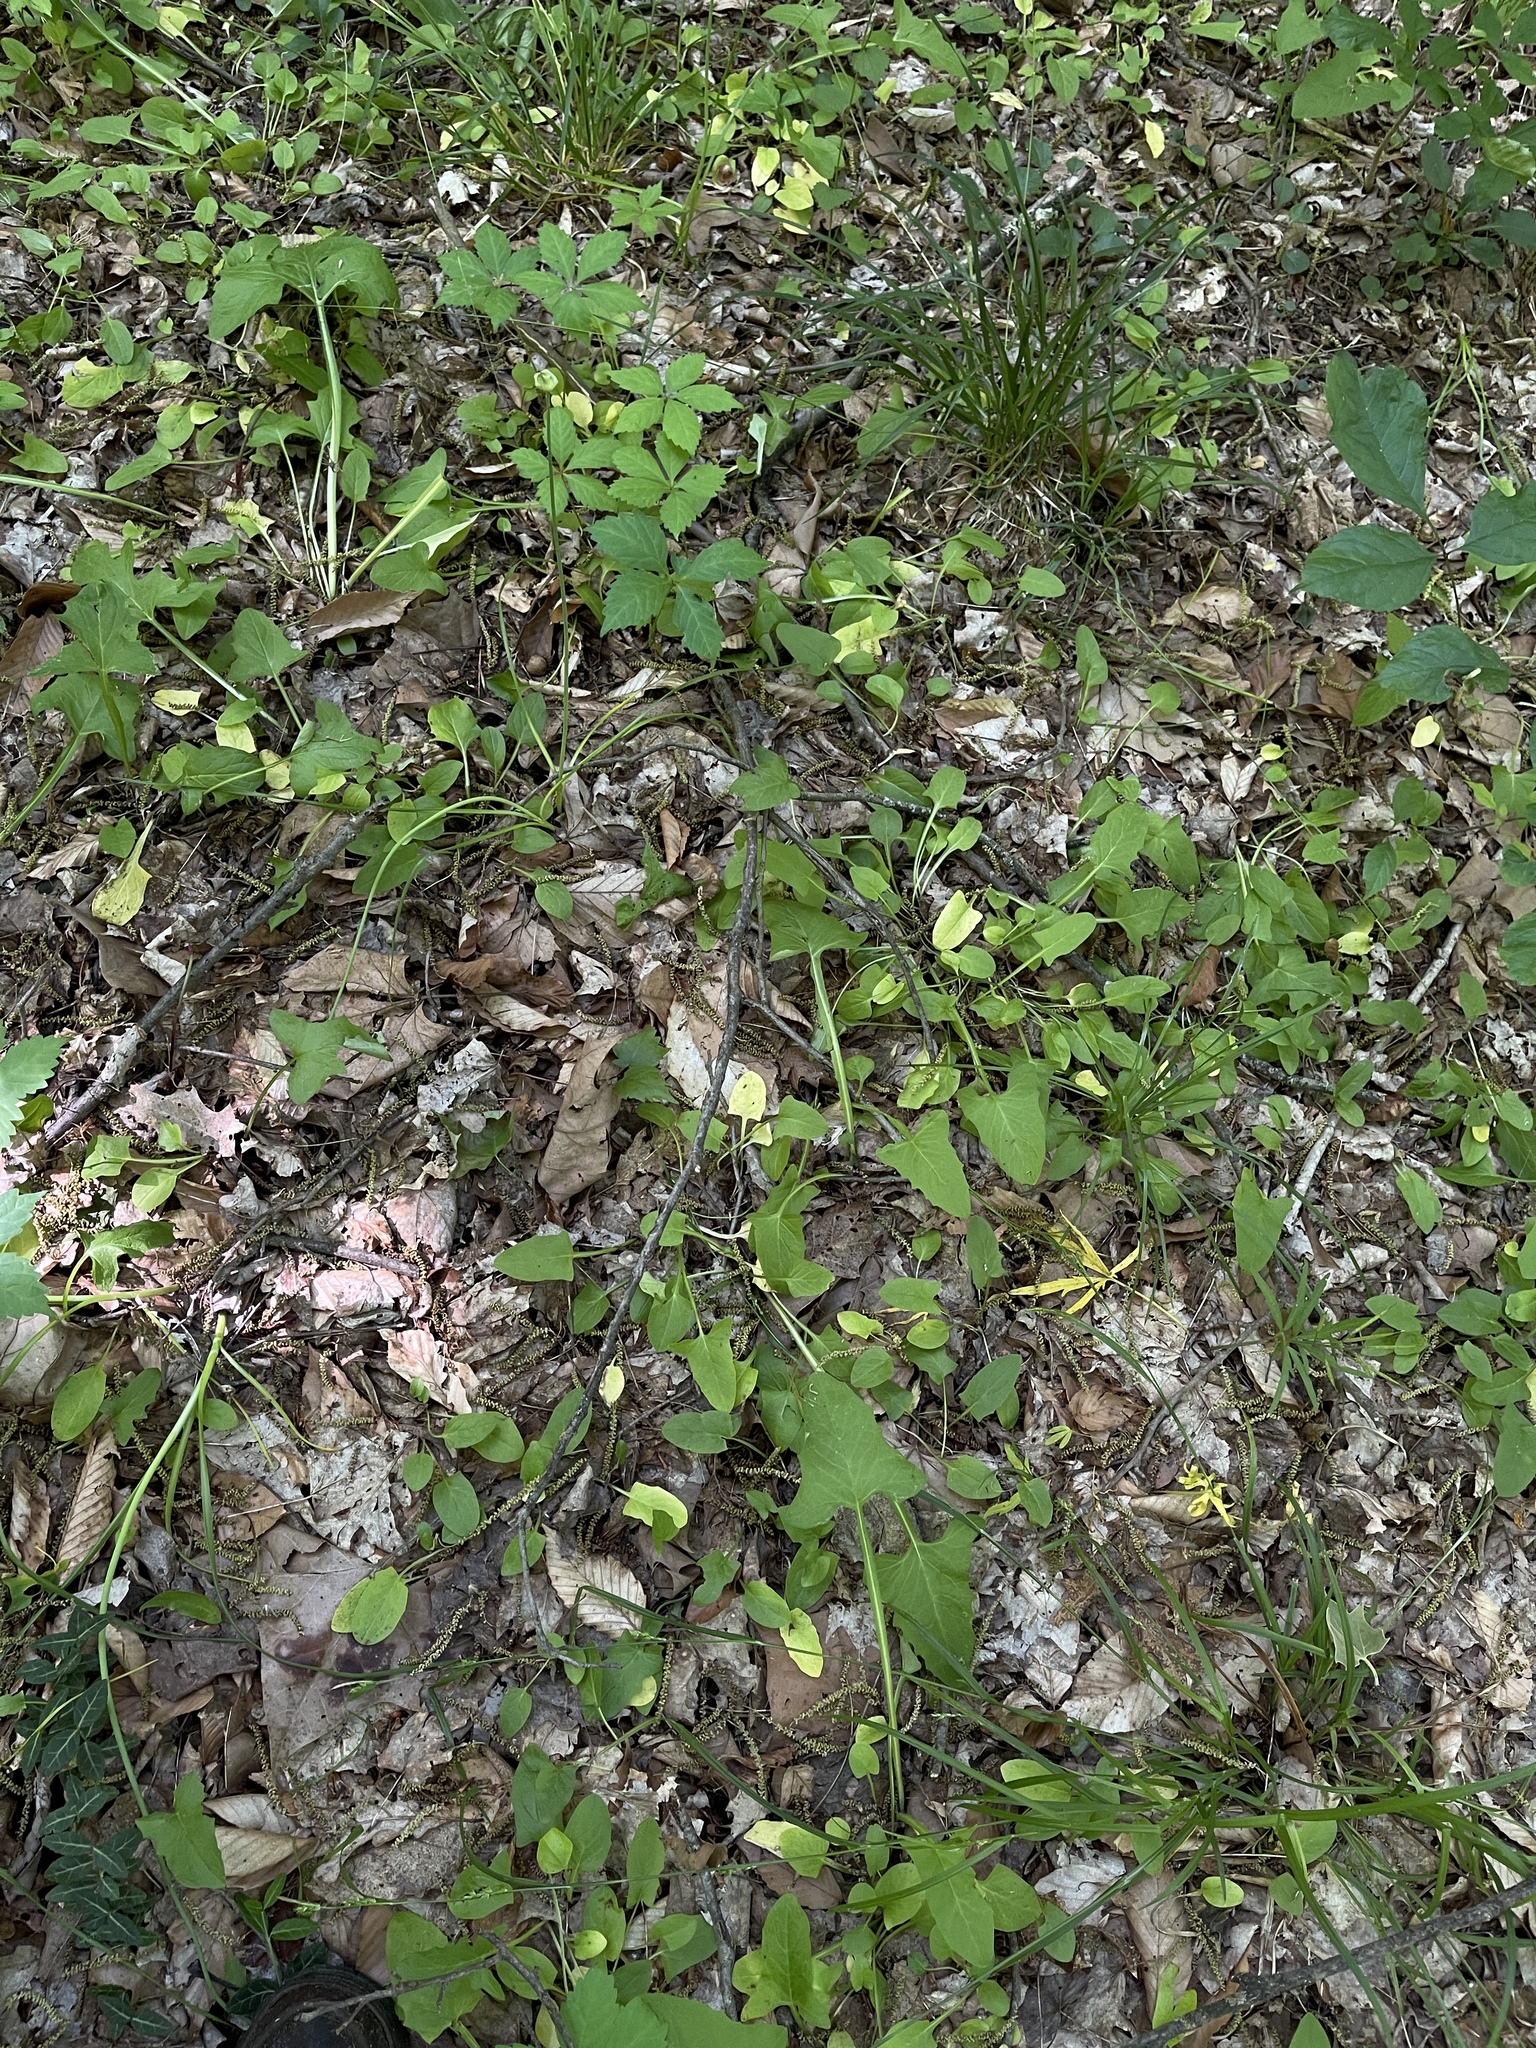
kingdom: Plantae
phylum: Tracheophyta
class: Magnoliopsida
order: Asterales
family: Asteraceae
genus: Nabalus
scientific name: Nabalus crepidineus
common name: Nodding rattlesnakeroot
